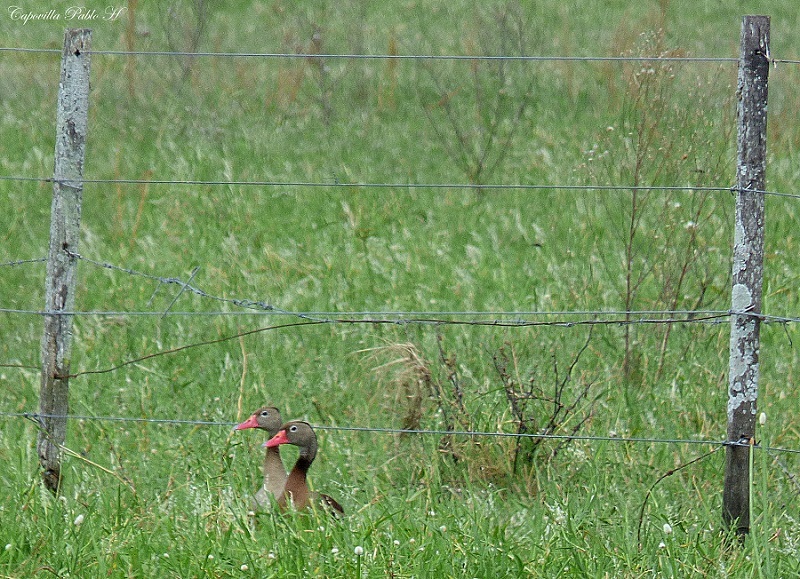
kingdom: Animalia
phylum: Chordata
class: Aves
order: Anseriformes
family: Anatidae
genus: Dendrocygna
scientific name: Dendrocygna autumnalis
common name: Black-bellied whistling duck
